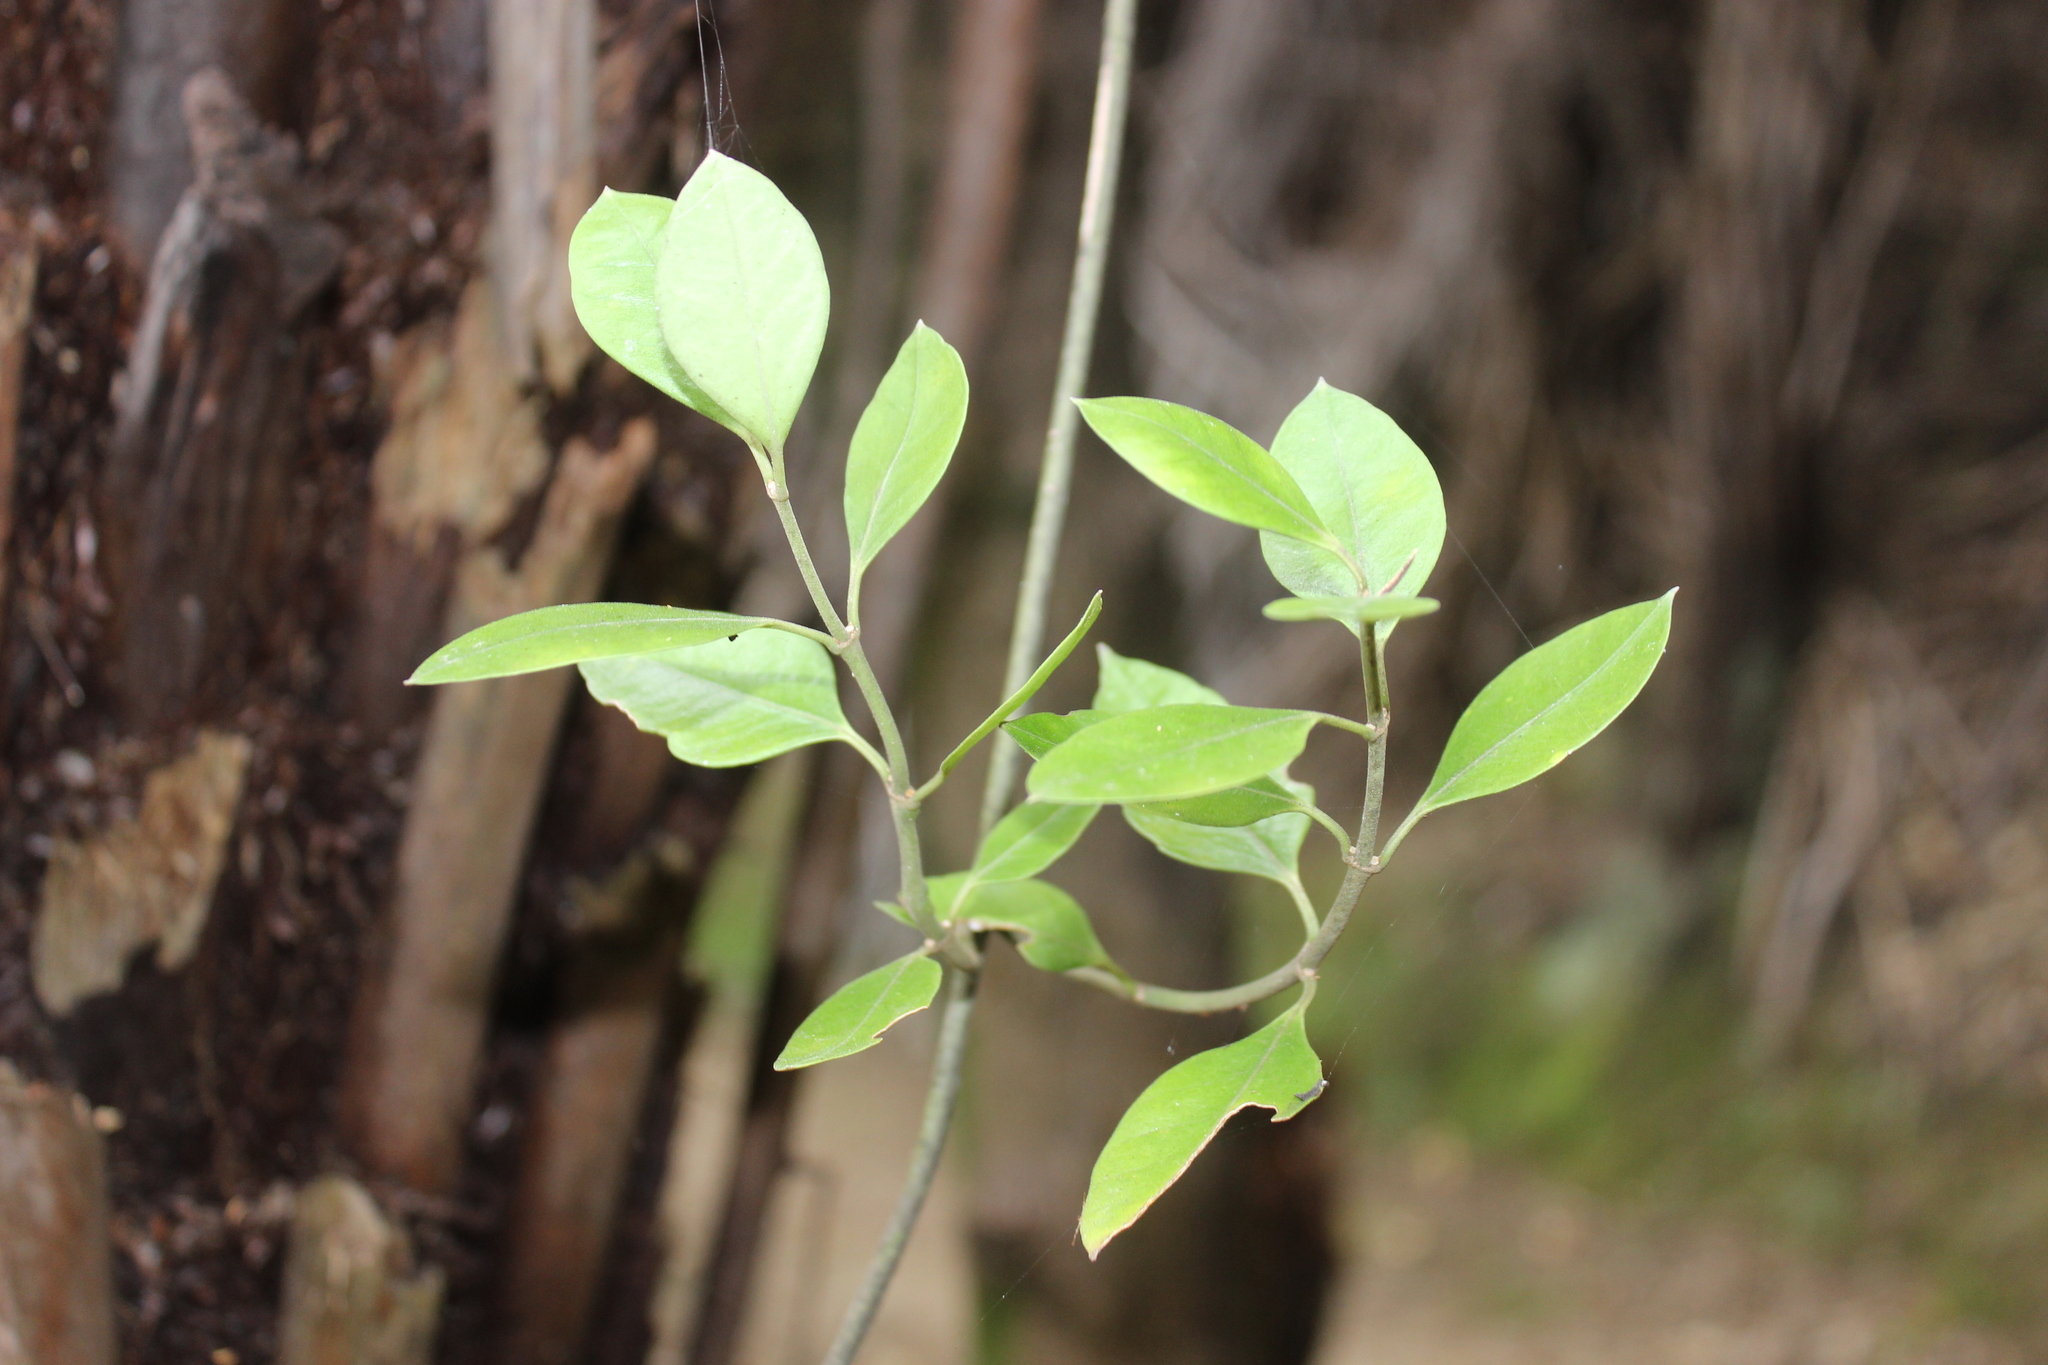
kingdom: Plantae
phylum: Tracheophyta
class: Magnoliopsida
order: Gentianales
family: Apocynaceae
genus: Parsonsia
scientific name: Parsonsia heterophylla
